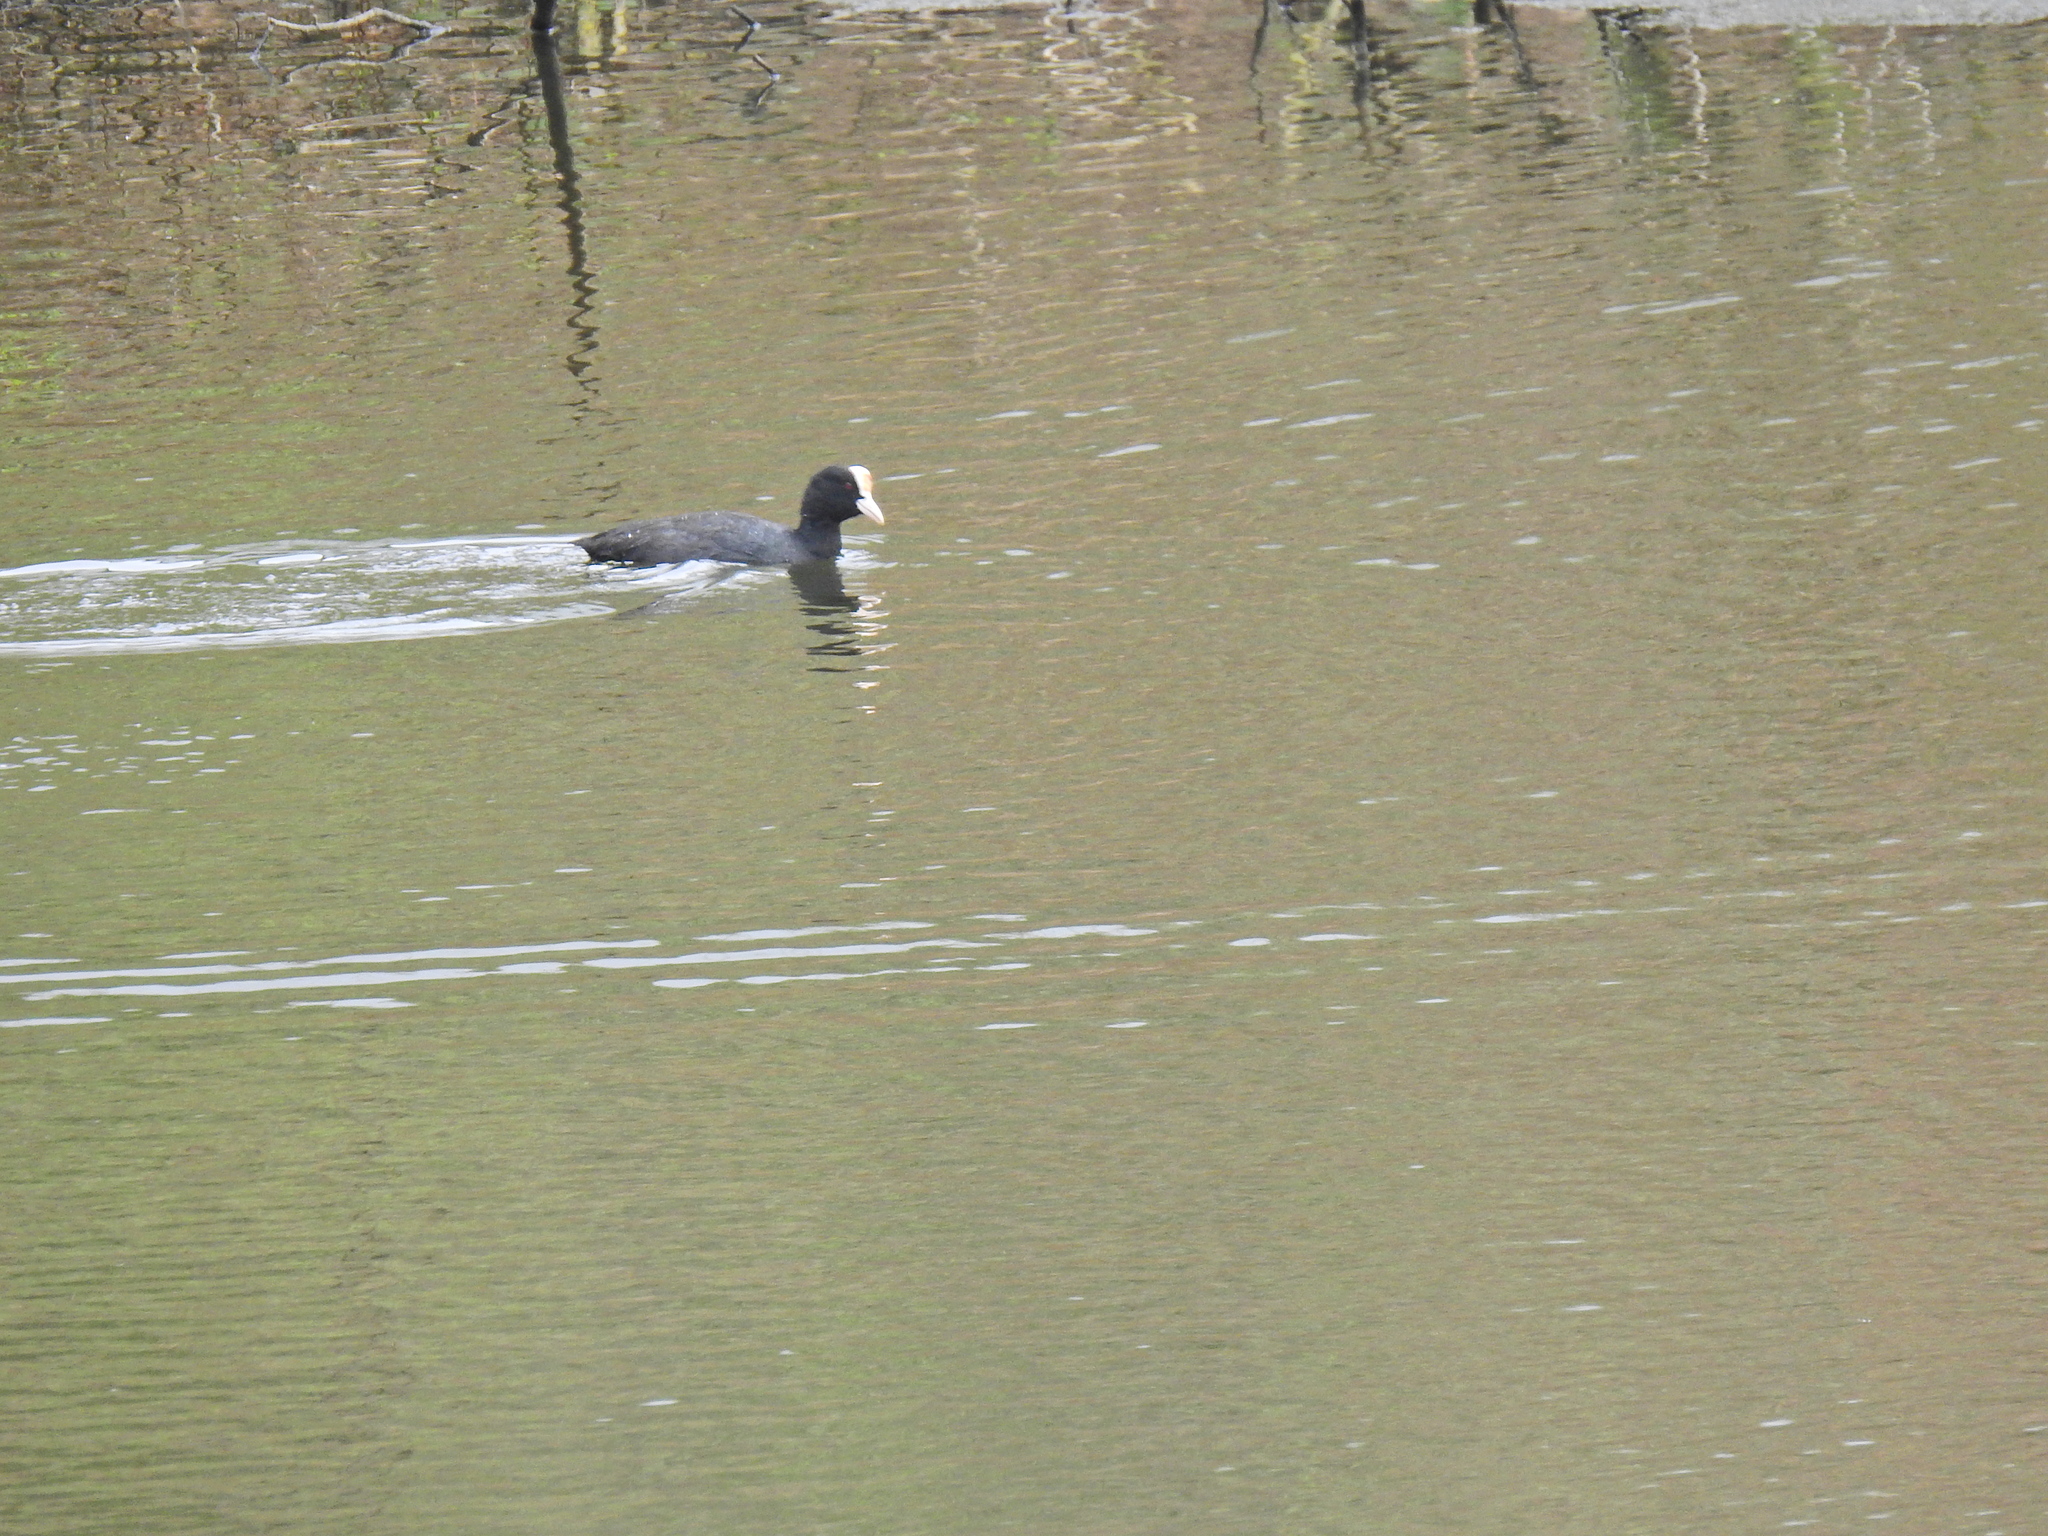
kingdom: Animalia
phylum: Chordata
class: Aves
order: Gruiformes
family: Rallidae
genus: Fulica
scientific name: Fulica atra
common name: Eurasian coot
